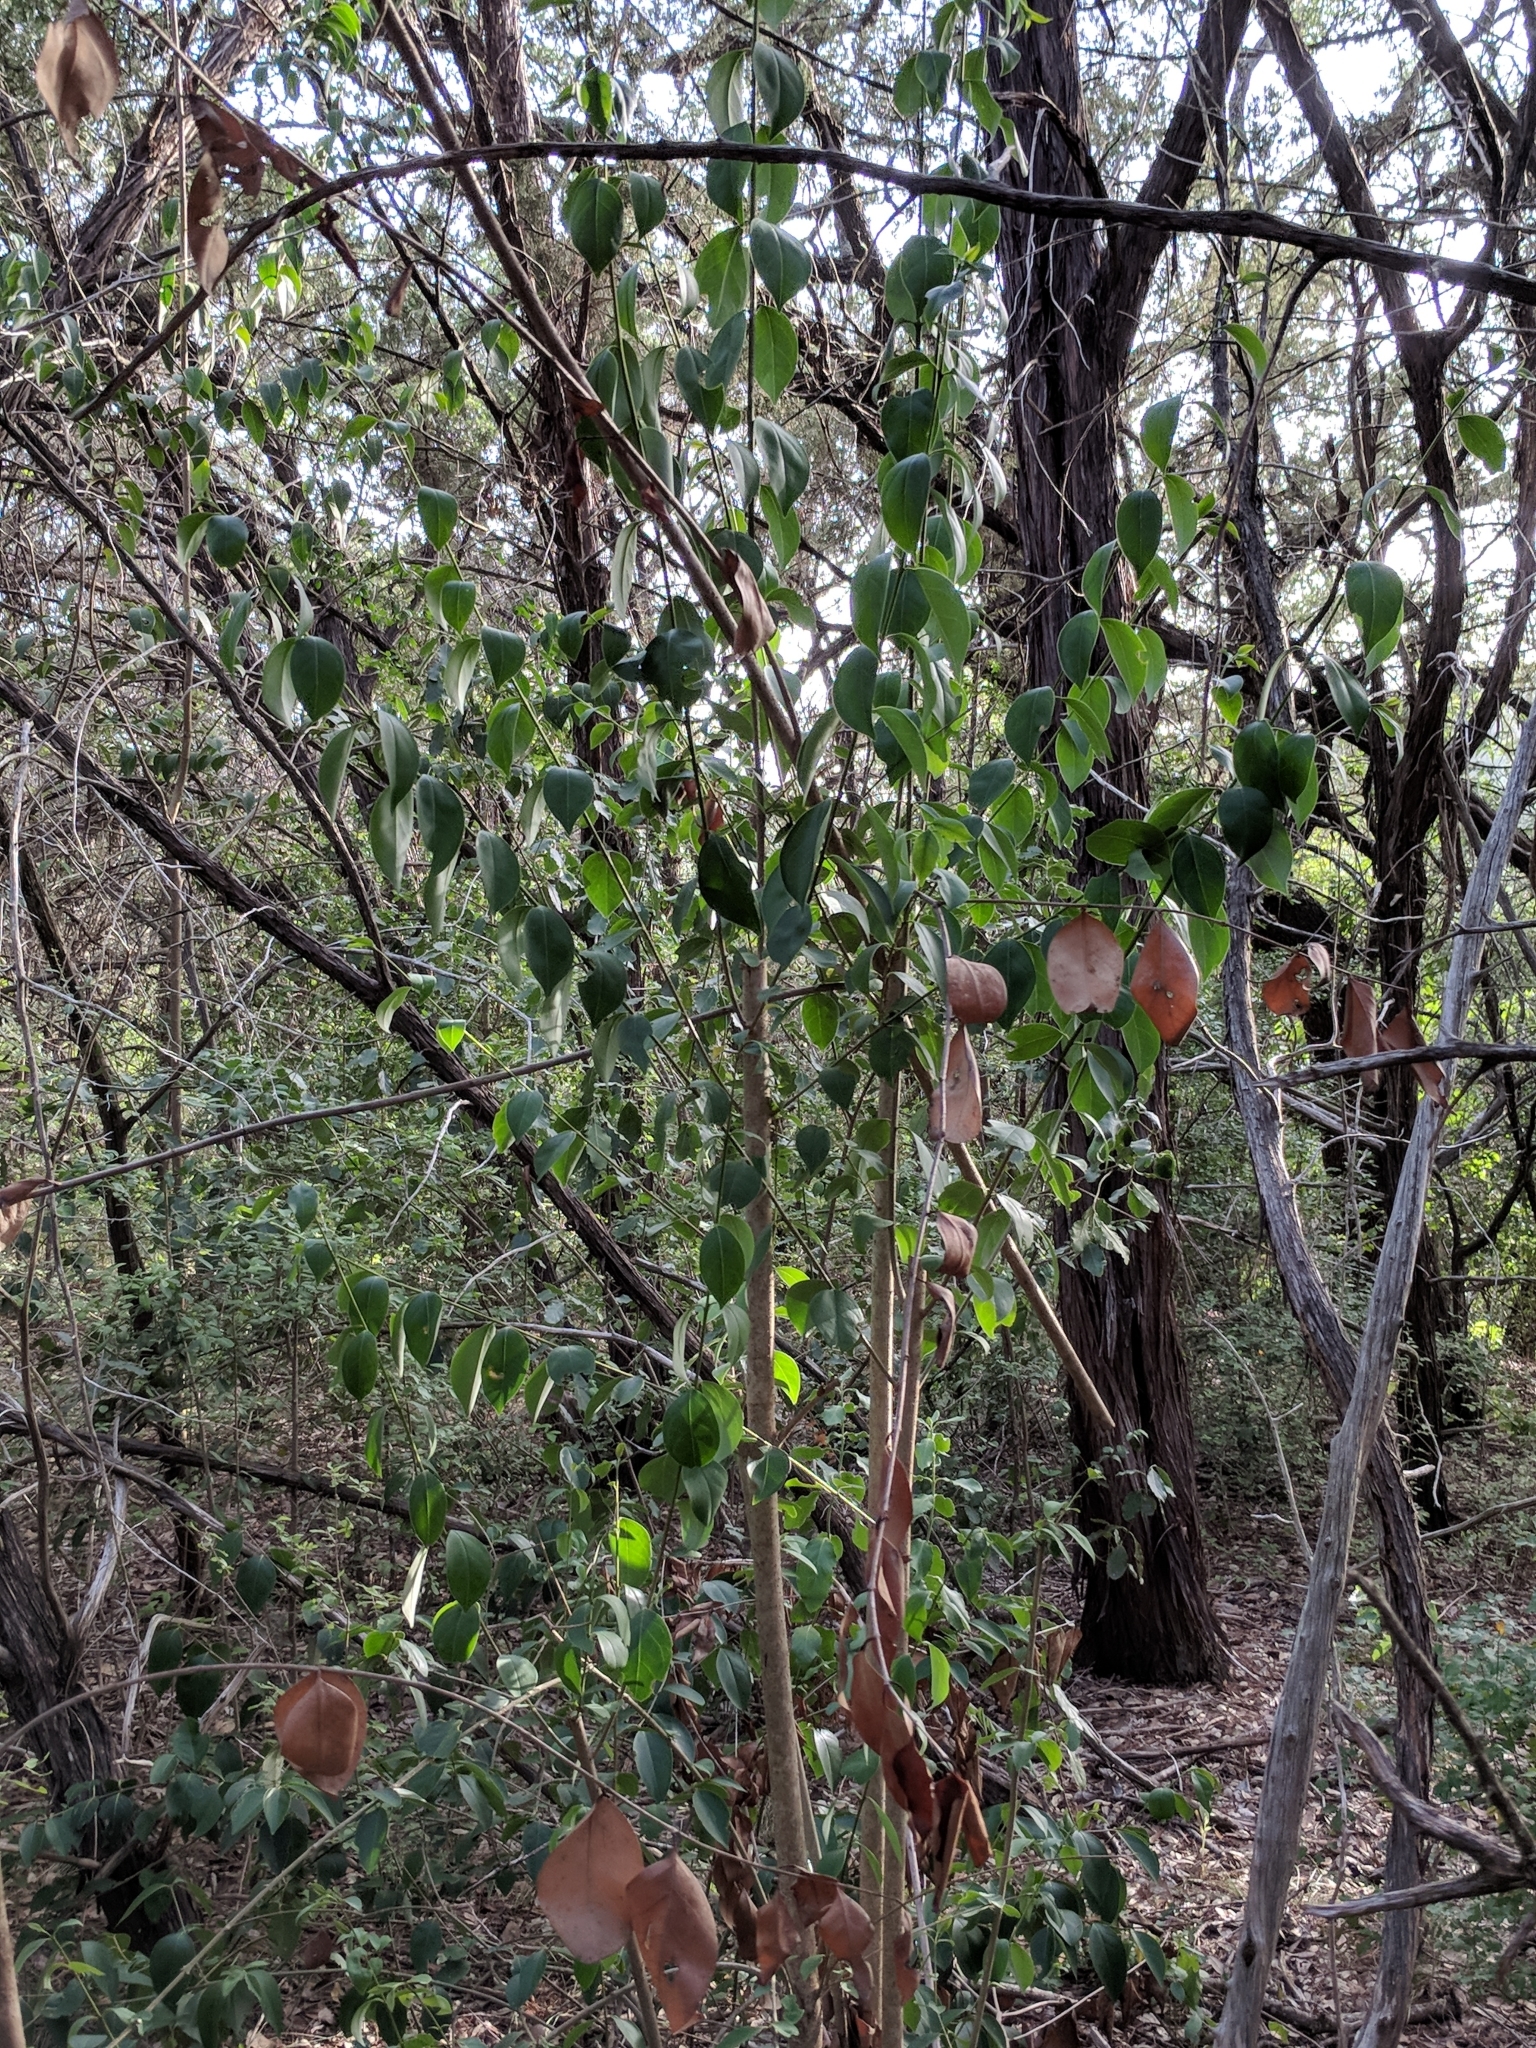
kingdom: Plantae
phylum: Tracheophyta
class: Magnoliopsida
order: Lamiales
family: Oleaceae
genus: Ligustrum
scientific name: Ligustrum lucidum
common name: Glossy privet
